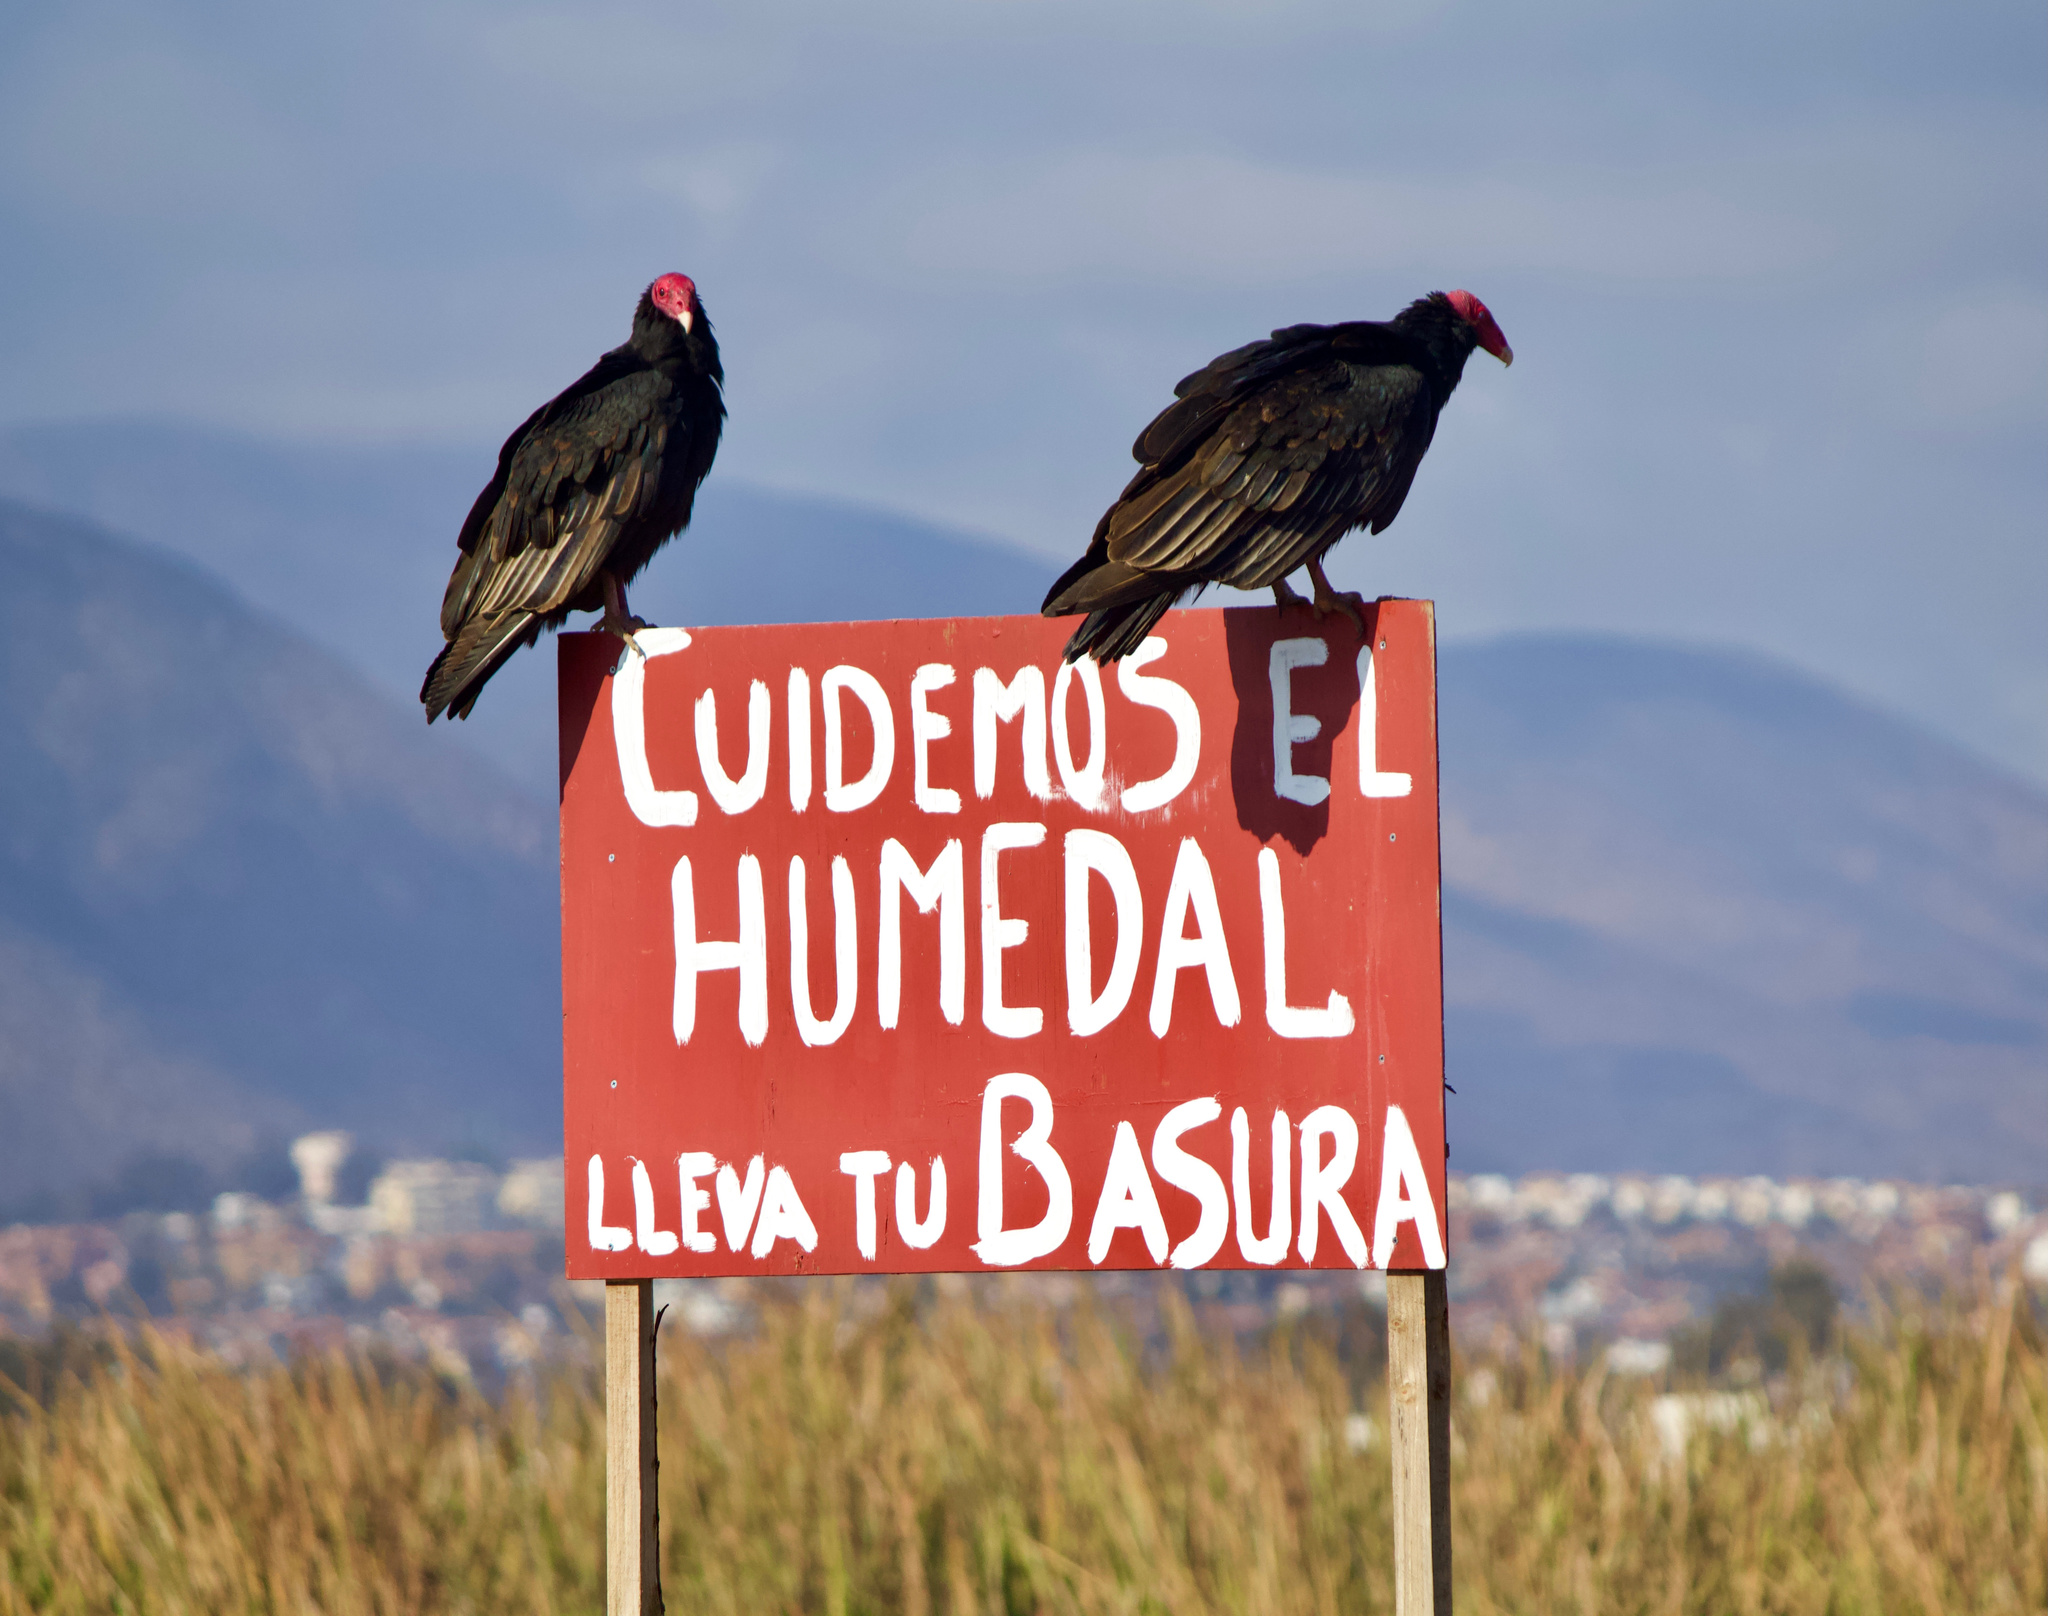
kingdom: Animalia
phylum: Chordata
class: Aves
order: Accipitriformes
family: Cathartidae
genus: Cathartes
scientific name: Cathartes aura
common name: Turkey vulture
